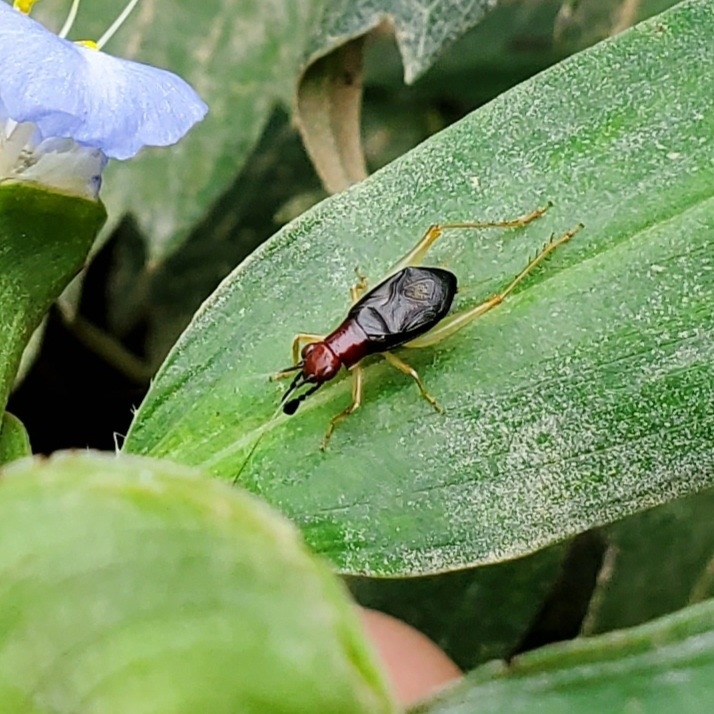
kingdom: Animalia
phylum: Arthropoda
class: Insecta
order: Orthoptera
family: Trigonidiidae
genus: Phyllopalpus
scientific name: Phyllopalpus pulchellus
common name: Handsome trig
